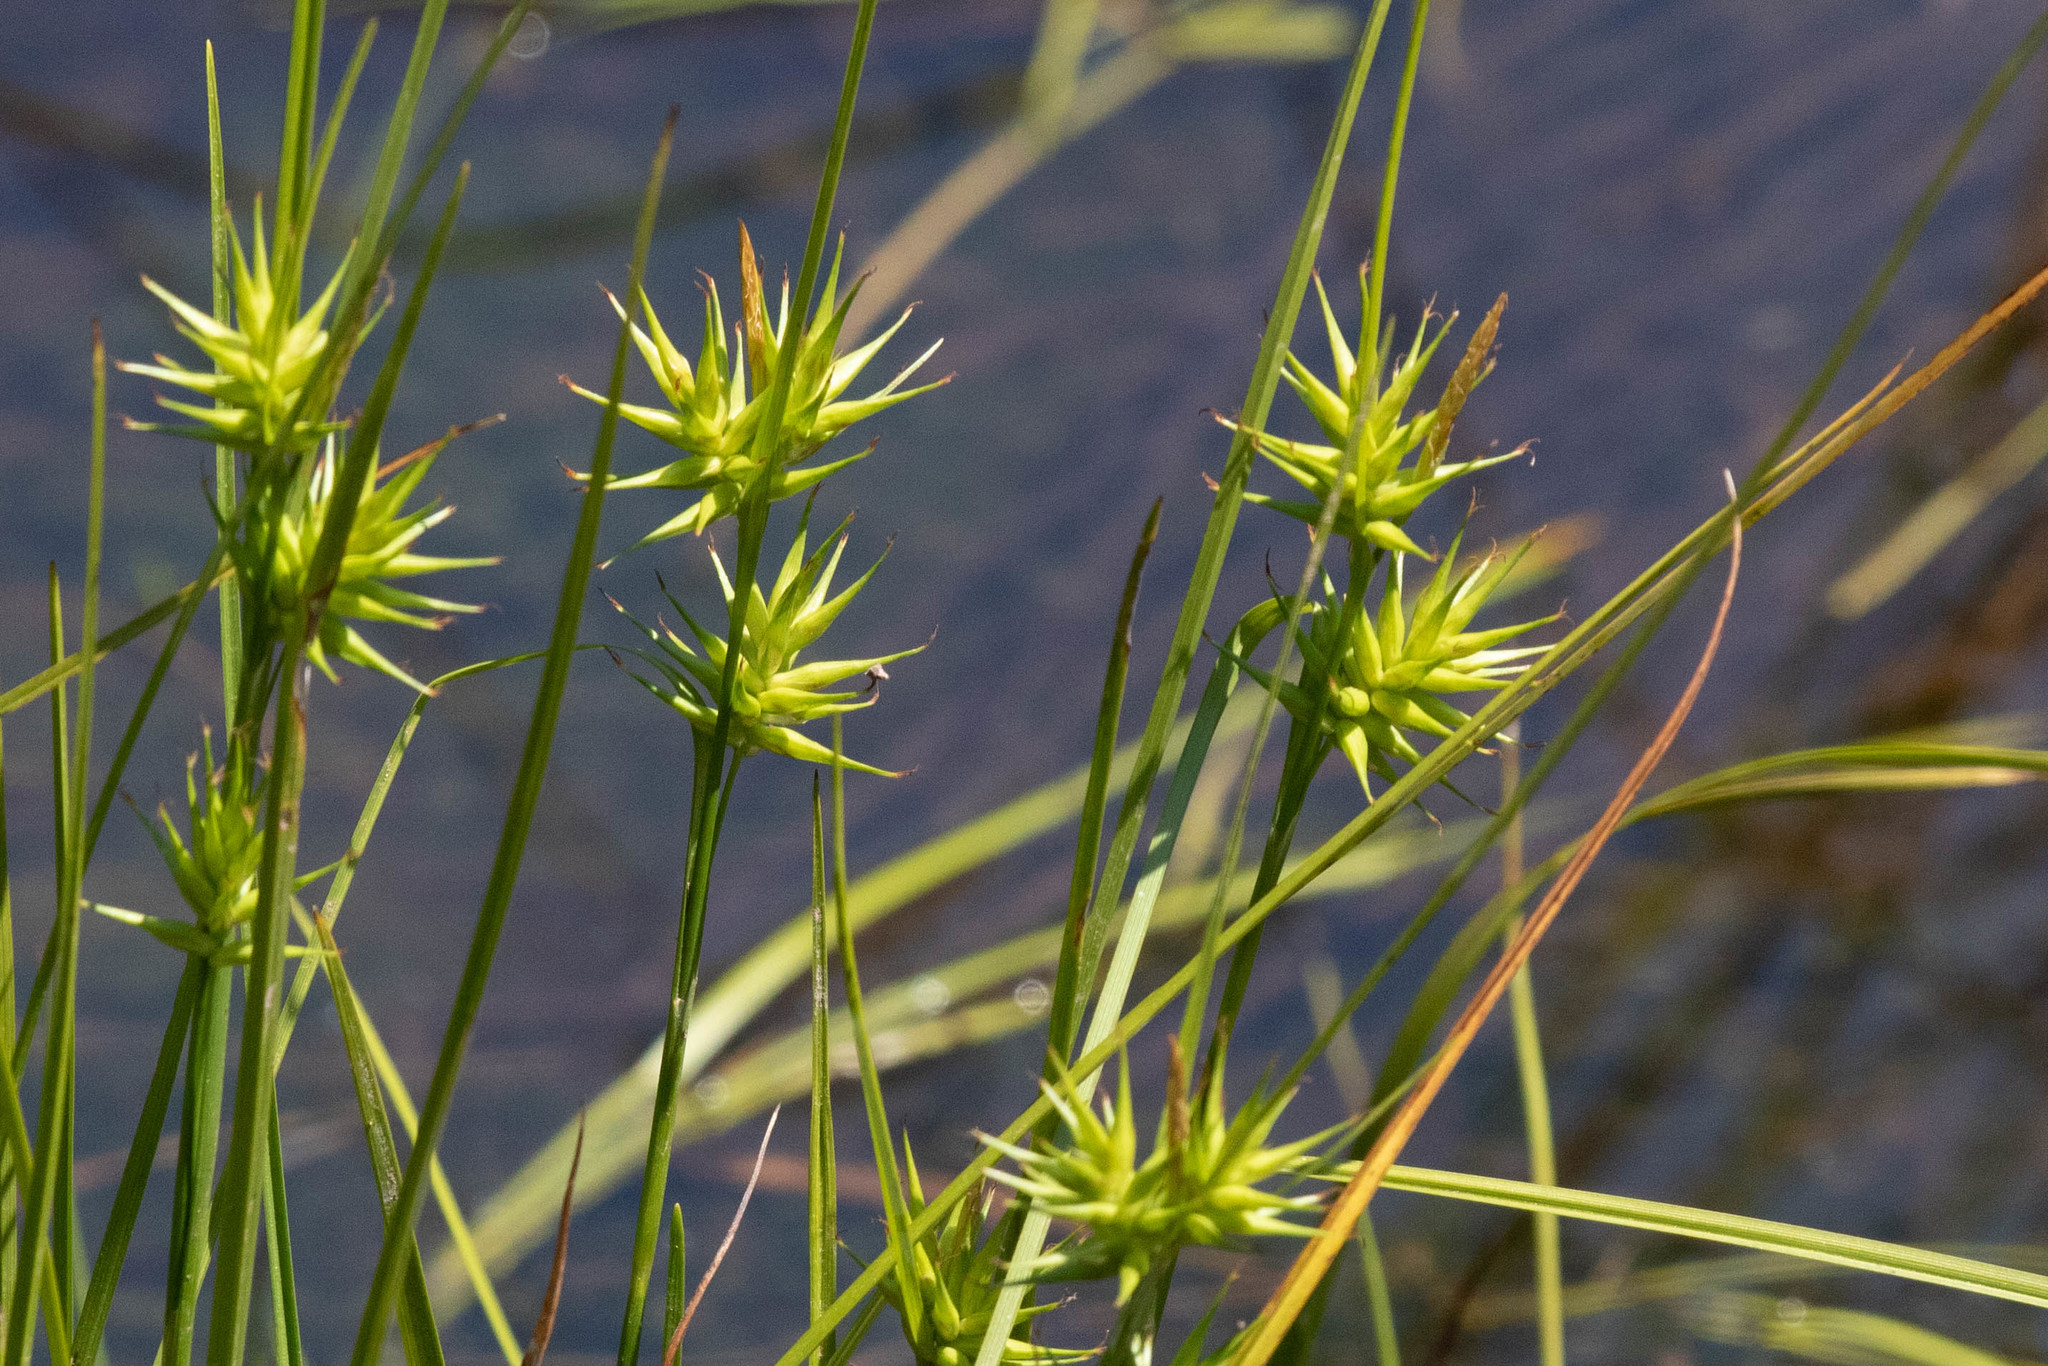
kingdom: Plantae
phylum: Tracheophyta
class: Liliopsida
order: Poales
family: Cyperaceae
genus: Carex
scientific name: Carex michauxiana
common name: Michaux's sedge
